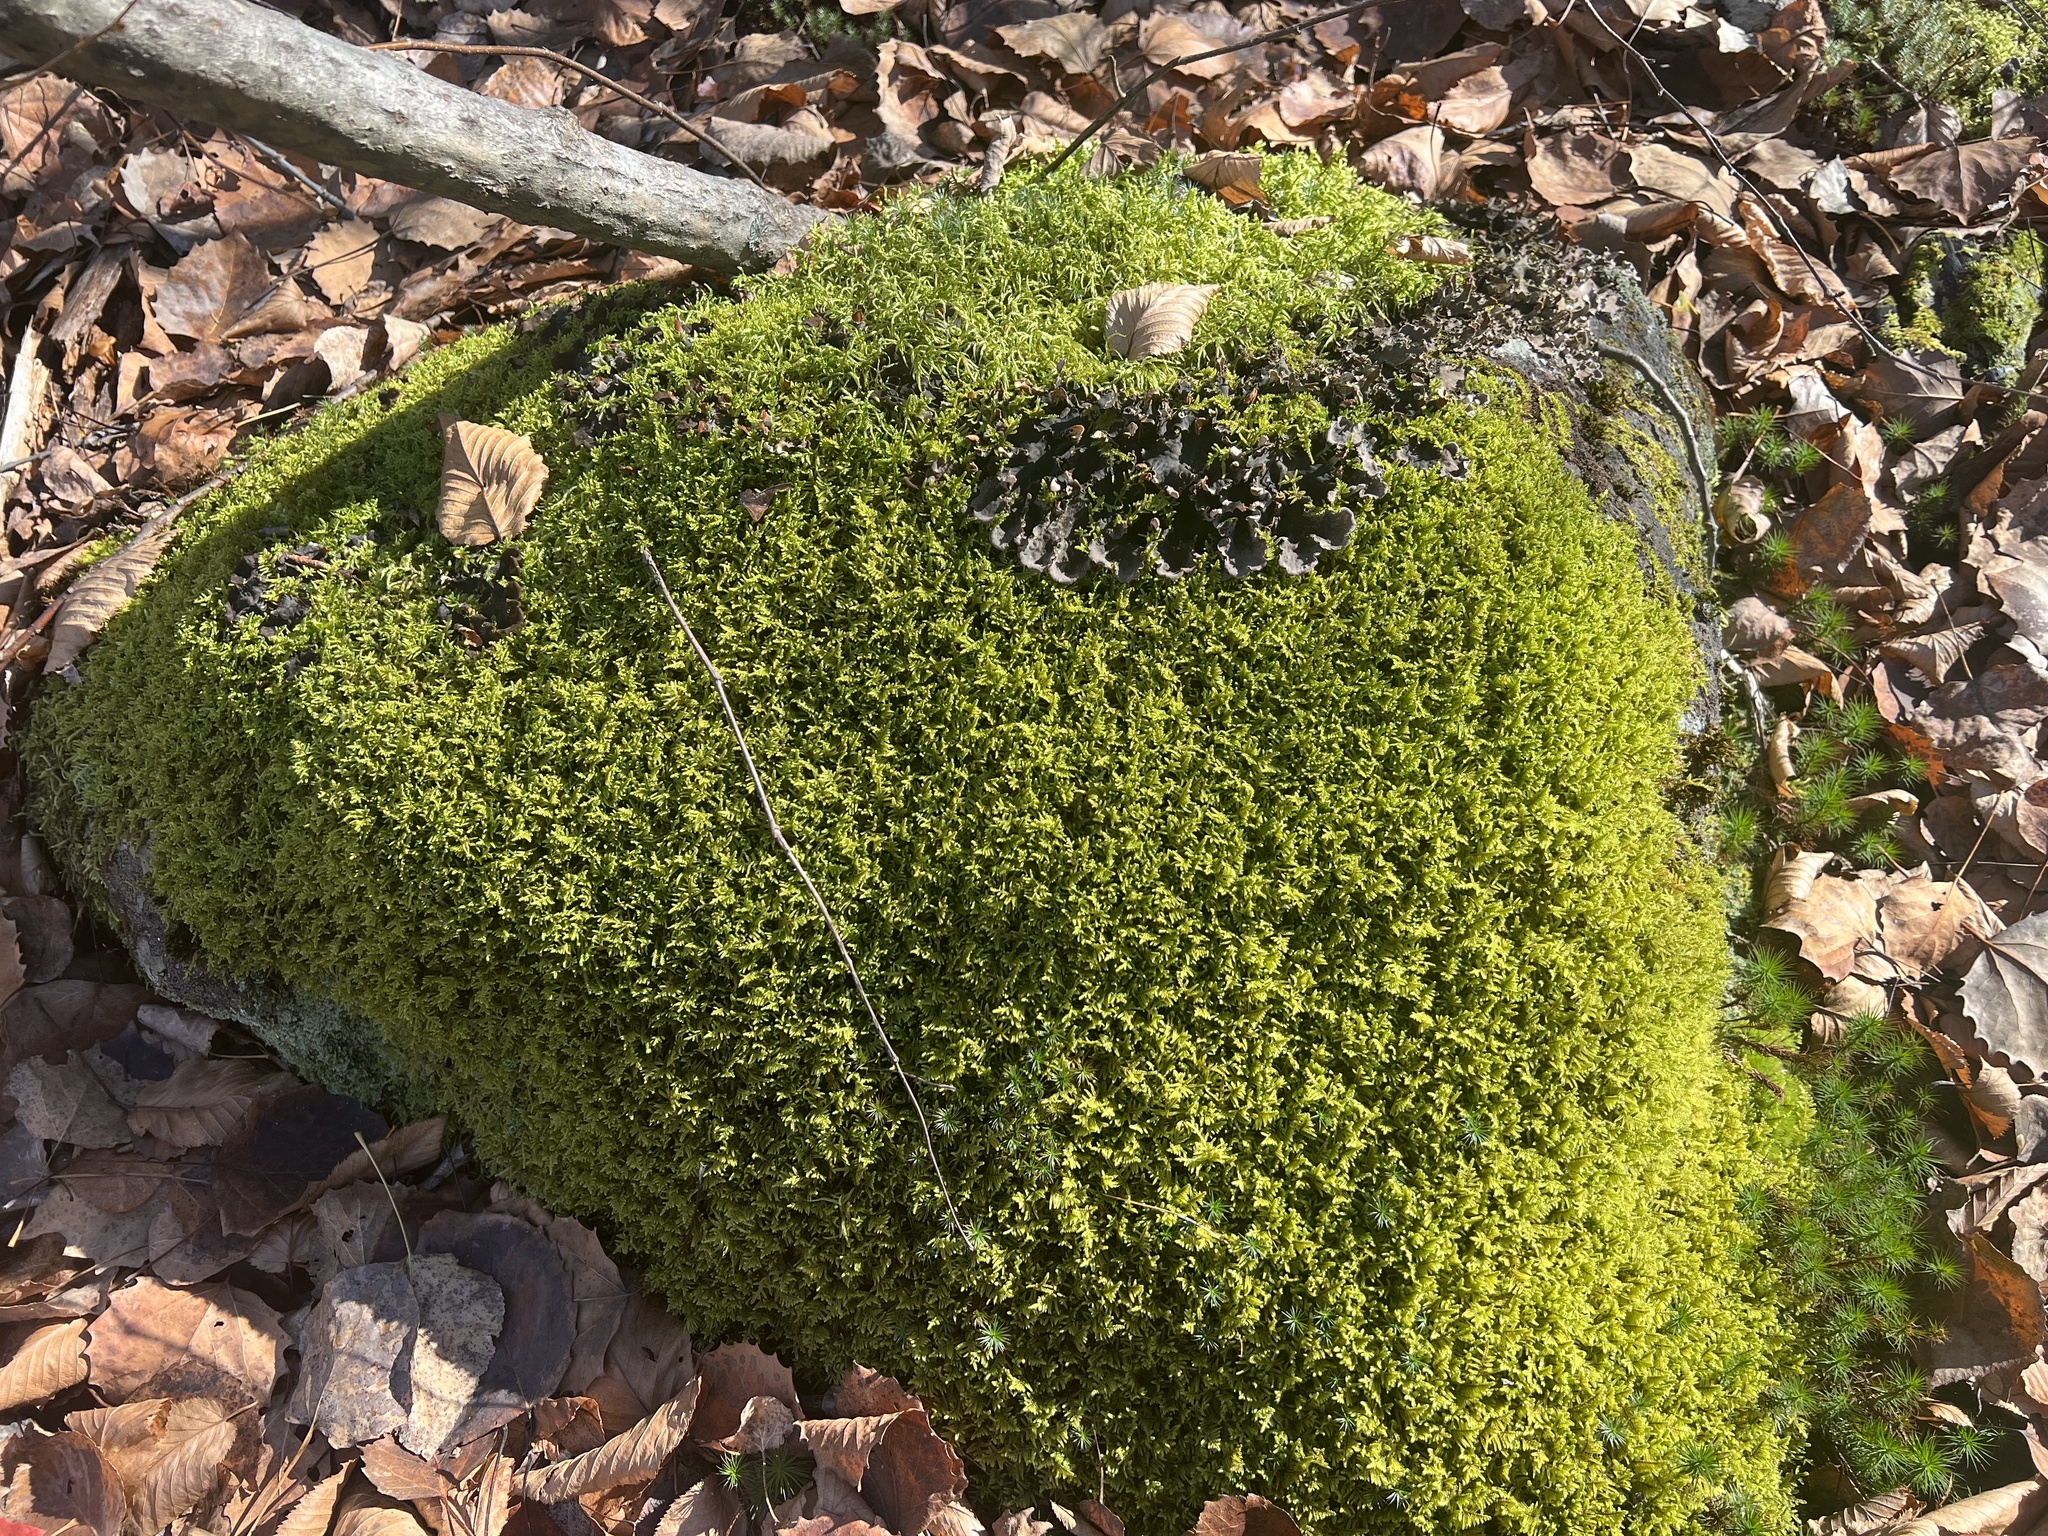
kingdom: Plantae
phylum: Bryophyta
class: Polytrichopsida
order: Polytrichales
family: Polytrichaceae
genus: Polytrichum
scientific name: Polytrichum juniperinum
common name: Juniper haircap moss
